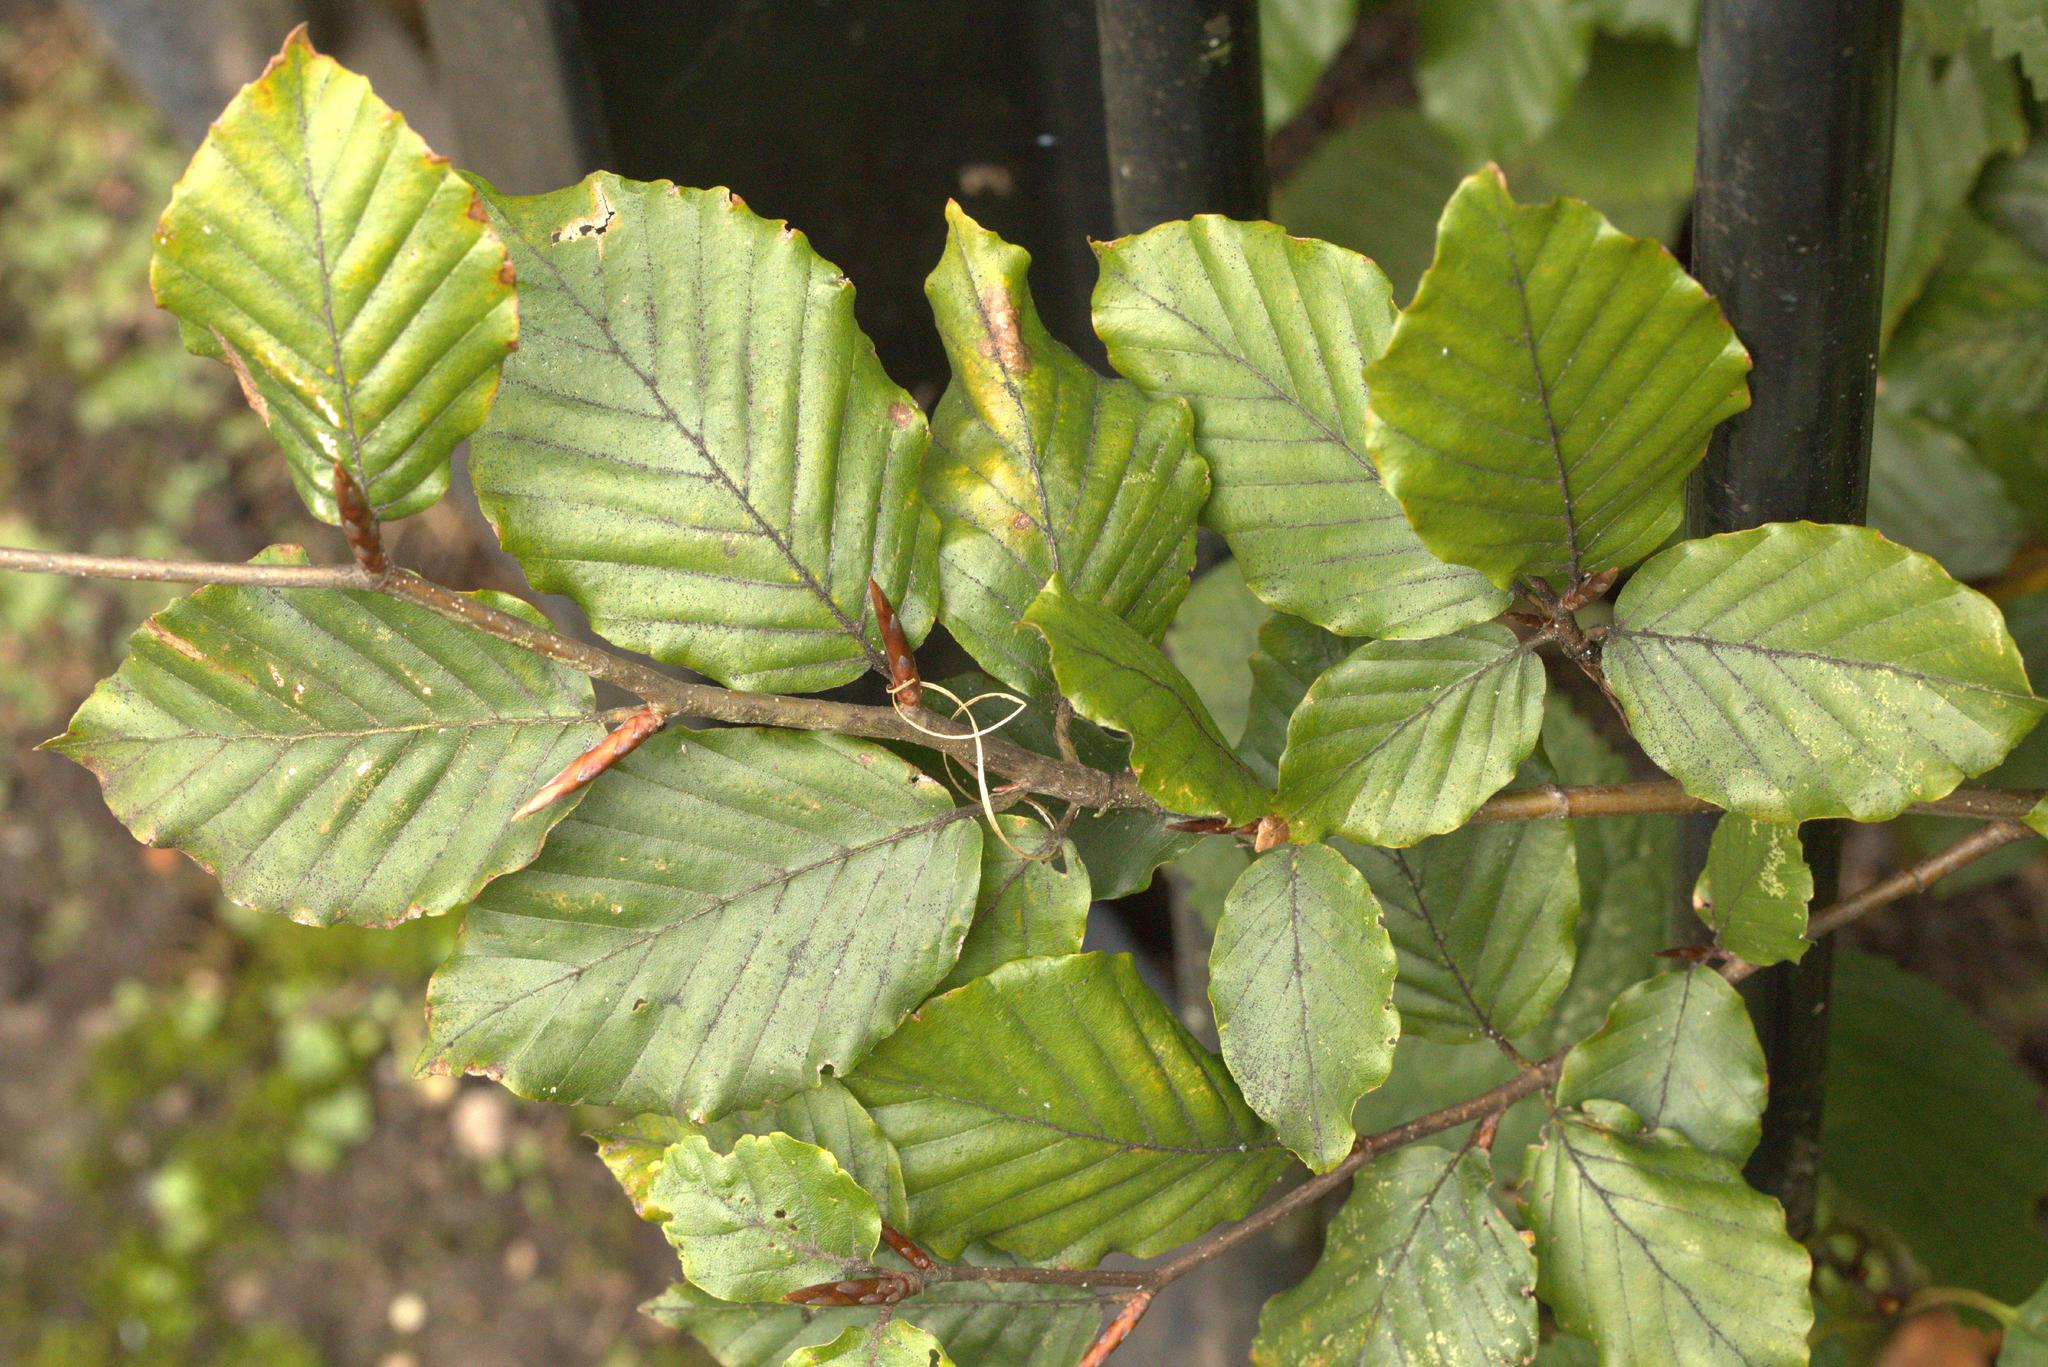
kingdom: Plantae
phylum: Tracheophyta
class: Magnoliopsida
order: Fagales
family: Fagaceae
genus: Fagus
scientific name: Fagus sylvatica
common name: Beech
